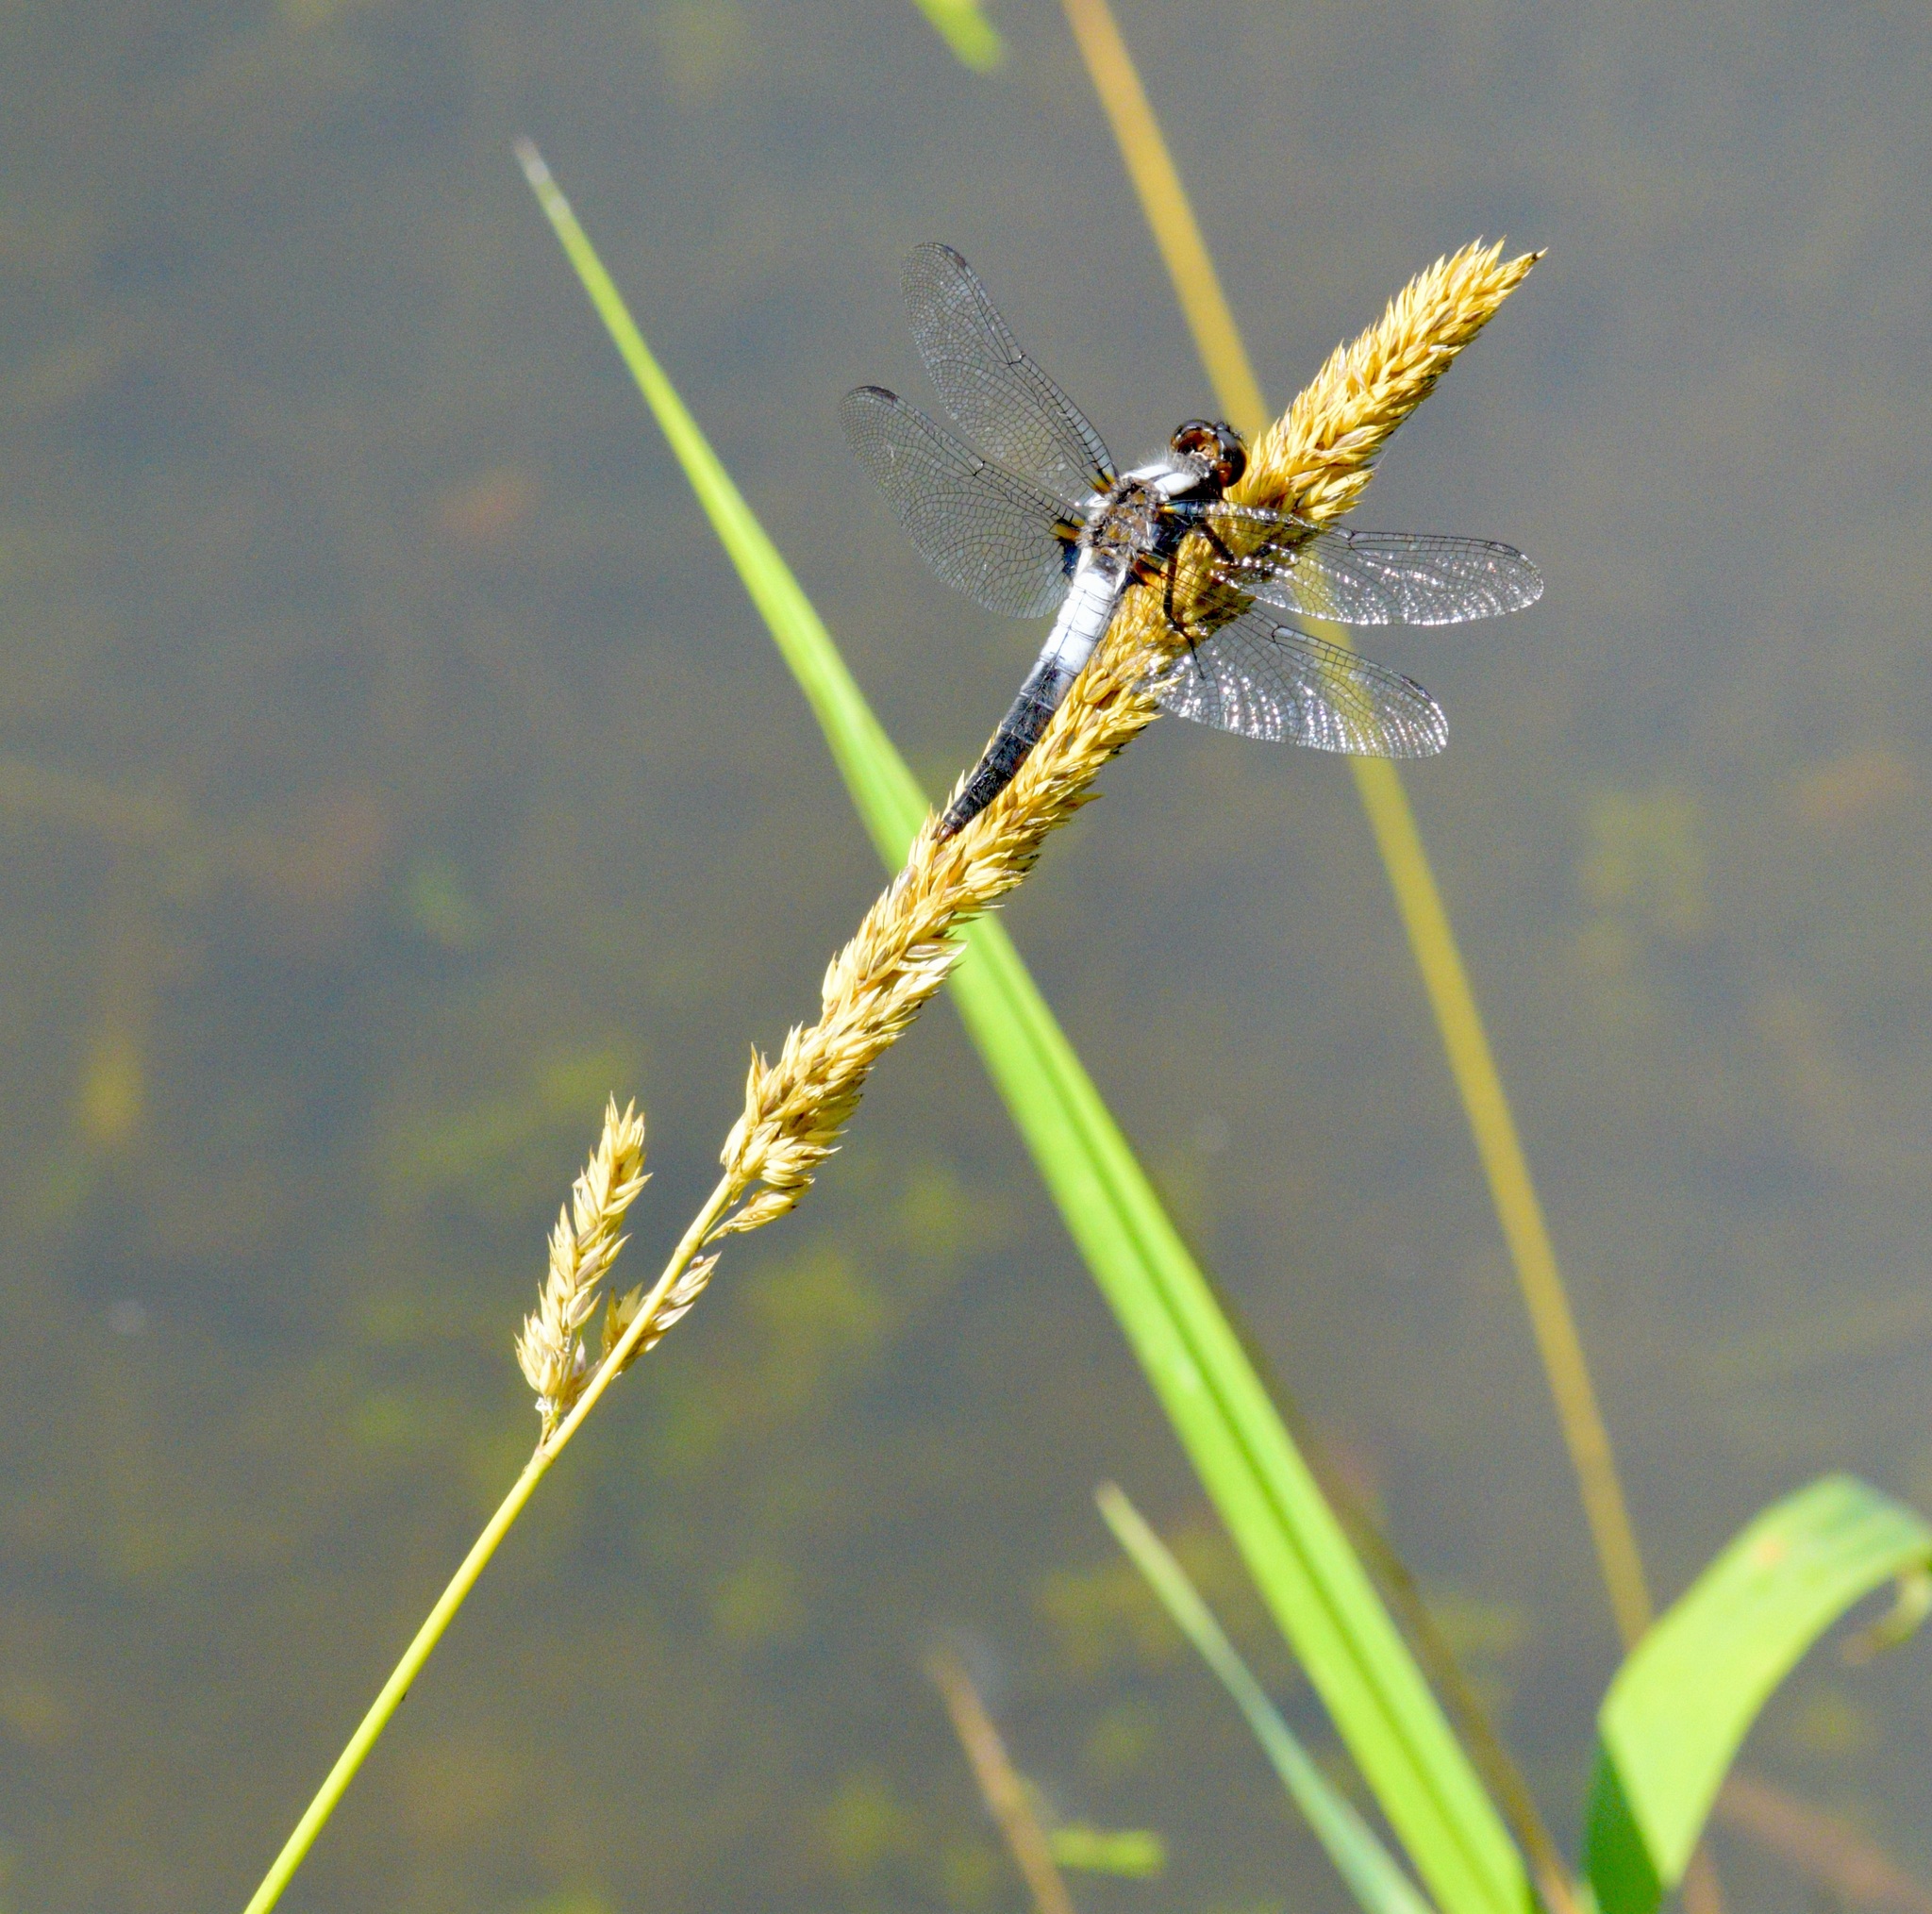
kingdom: Animalia
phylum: Arthropoda
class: Insecta
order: Odonata
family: Libellulidae
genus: Ladona
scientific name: Ladona julia
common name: Chalk-fronted corporal
